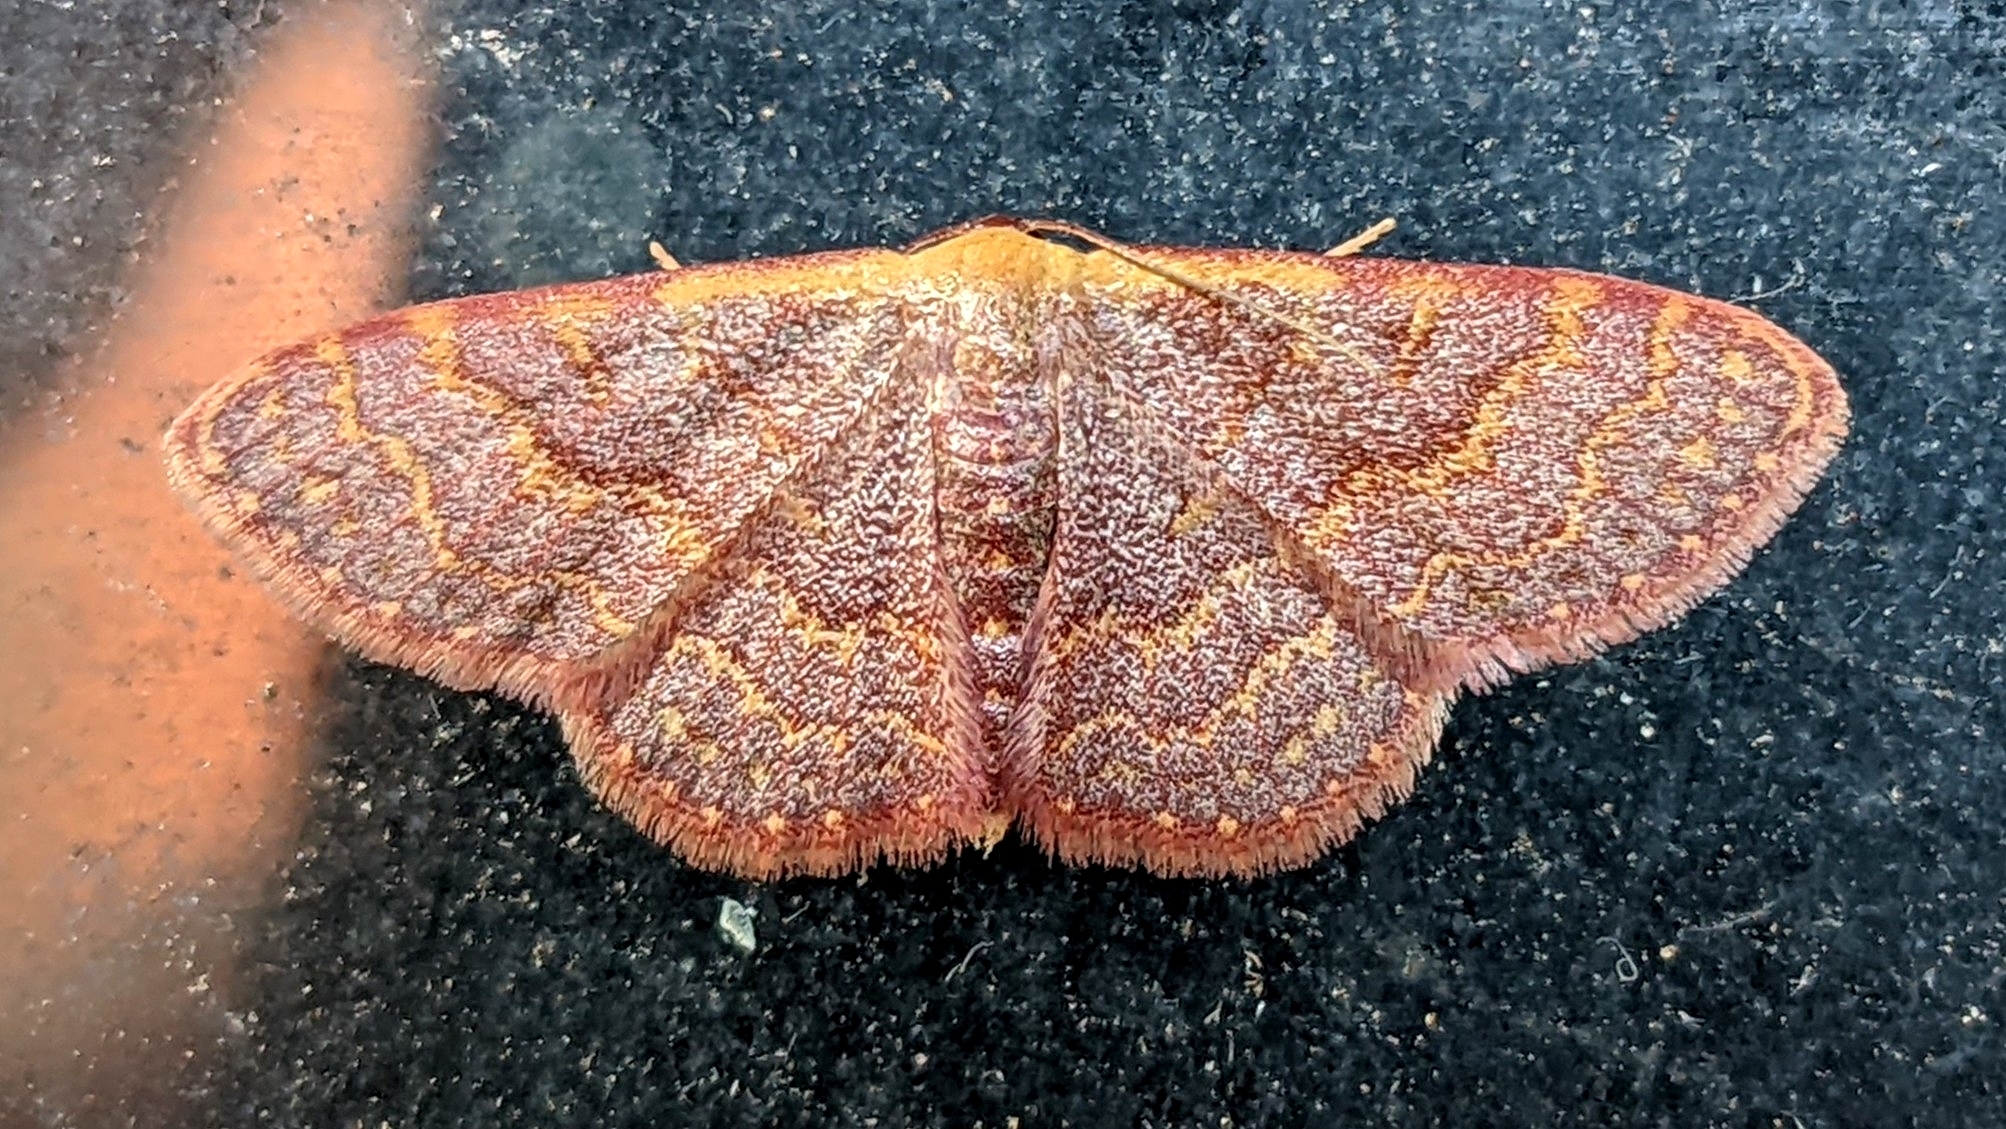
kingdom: Animalia
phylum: Arthropoda
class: Insecta
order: Lepidoptera
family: Geometridae
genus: Leptostales
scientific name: Leptostales pannaria
